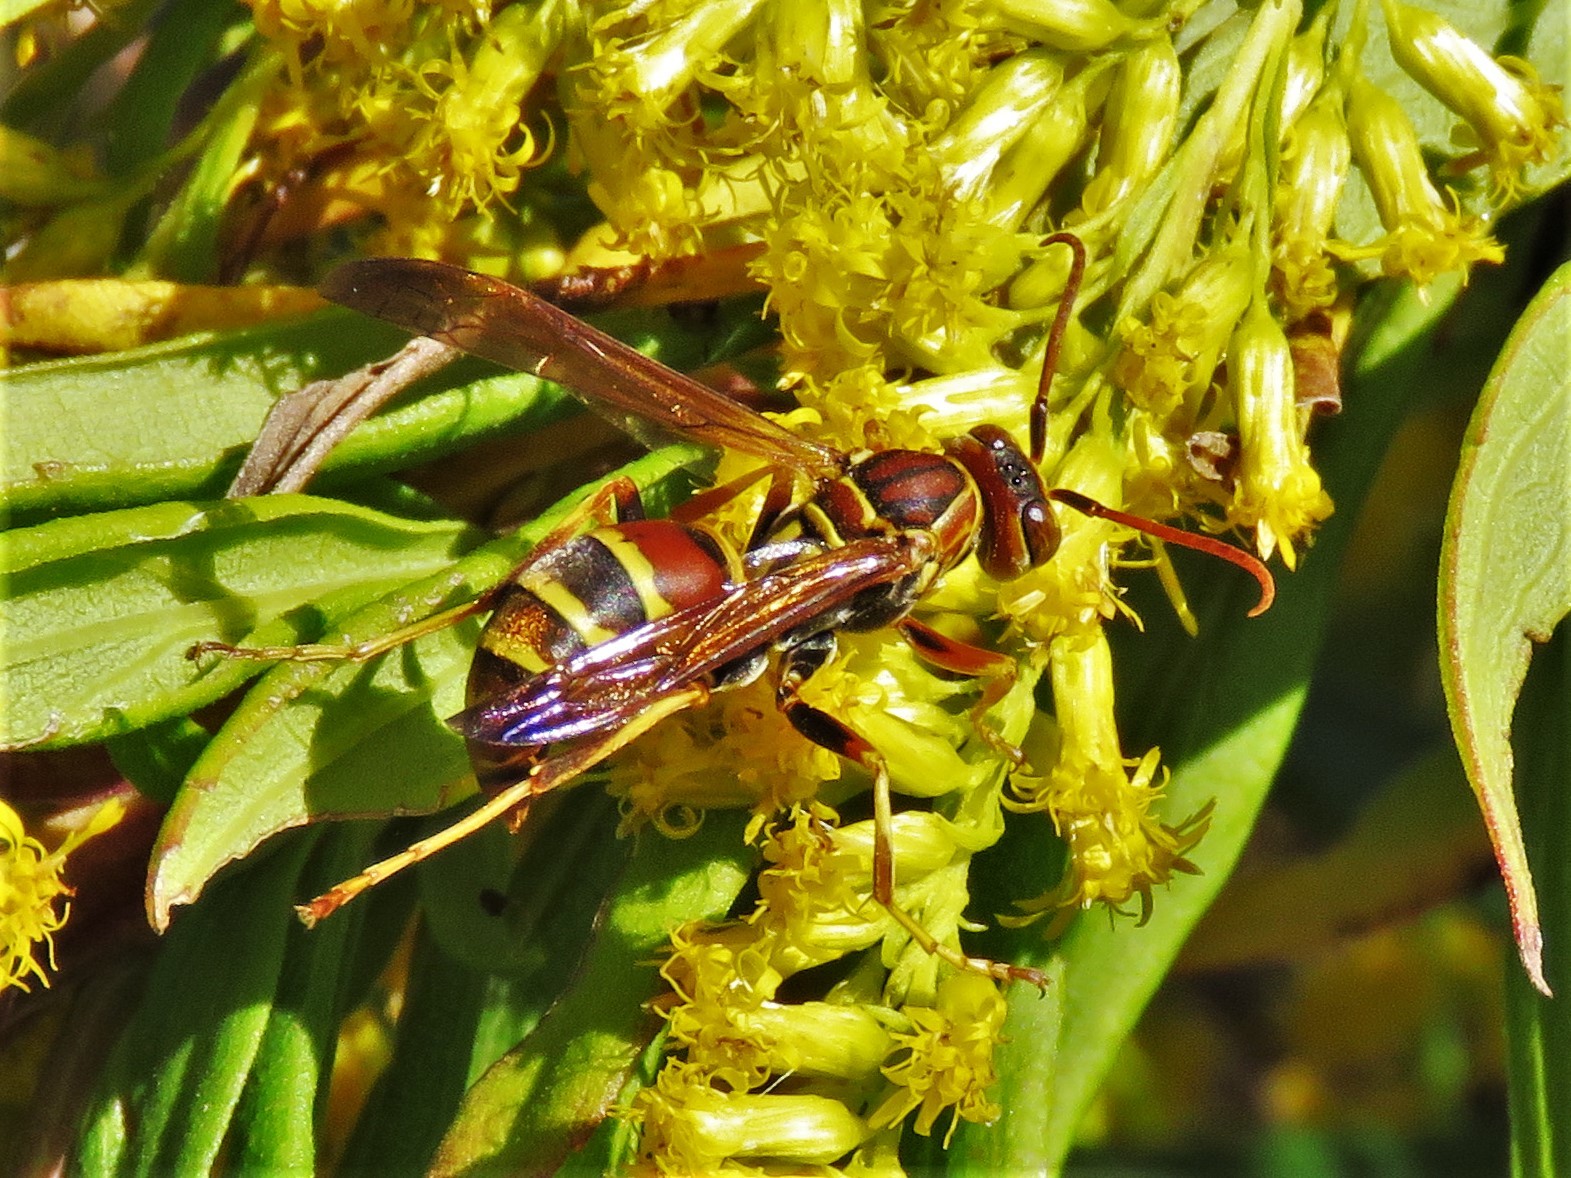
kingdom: Animalia
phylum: Arthropoda
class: Insecta
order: Hymenoptera
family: Eumenidae
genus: Polistes
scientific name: Polistes dorsalis
